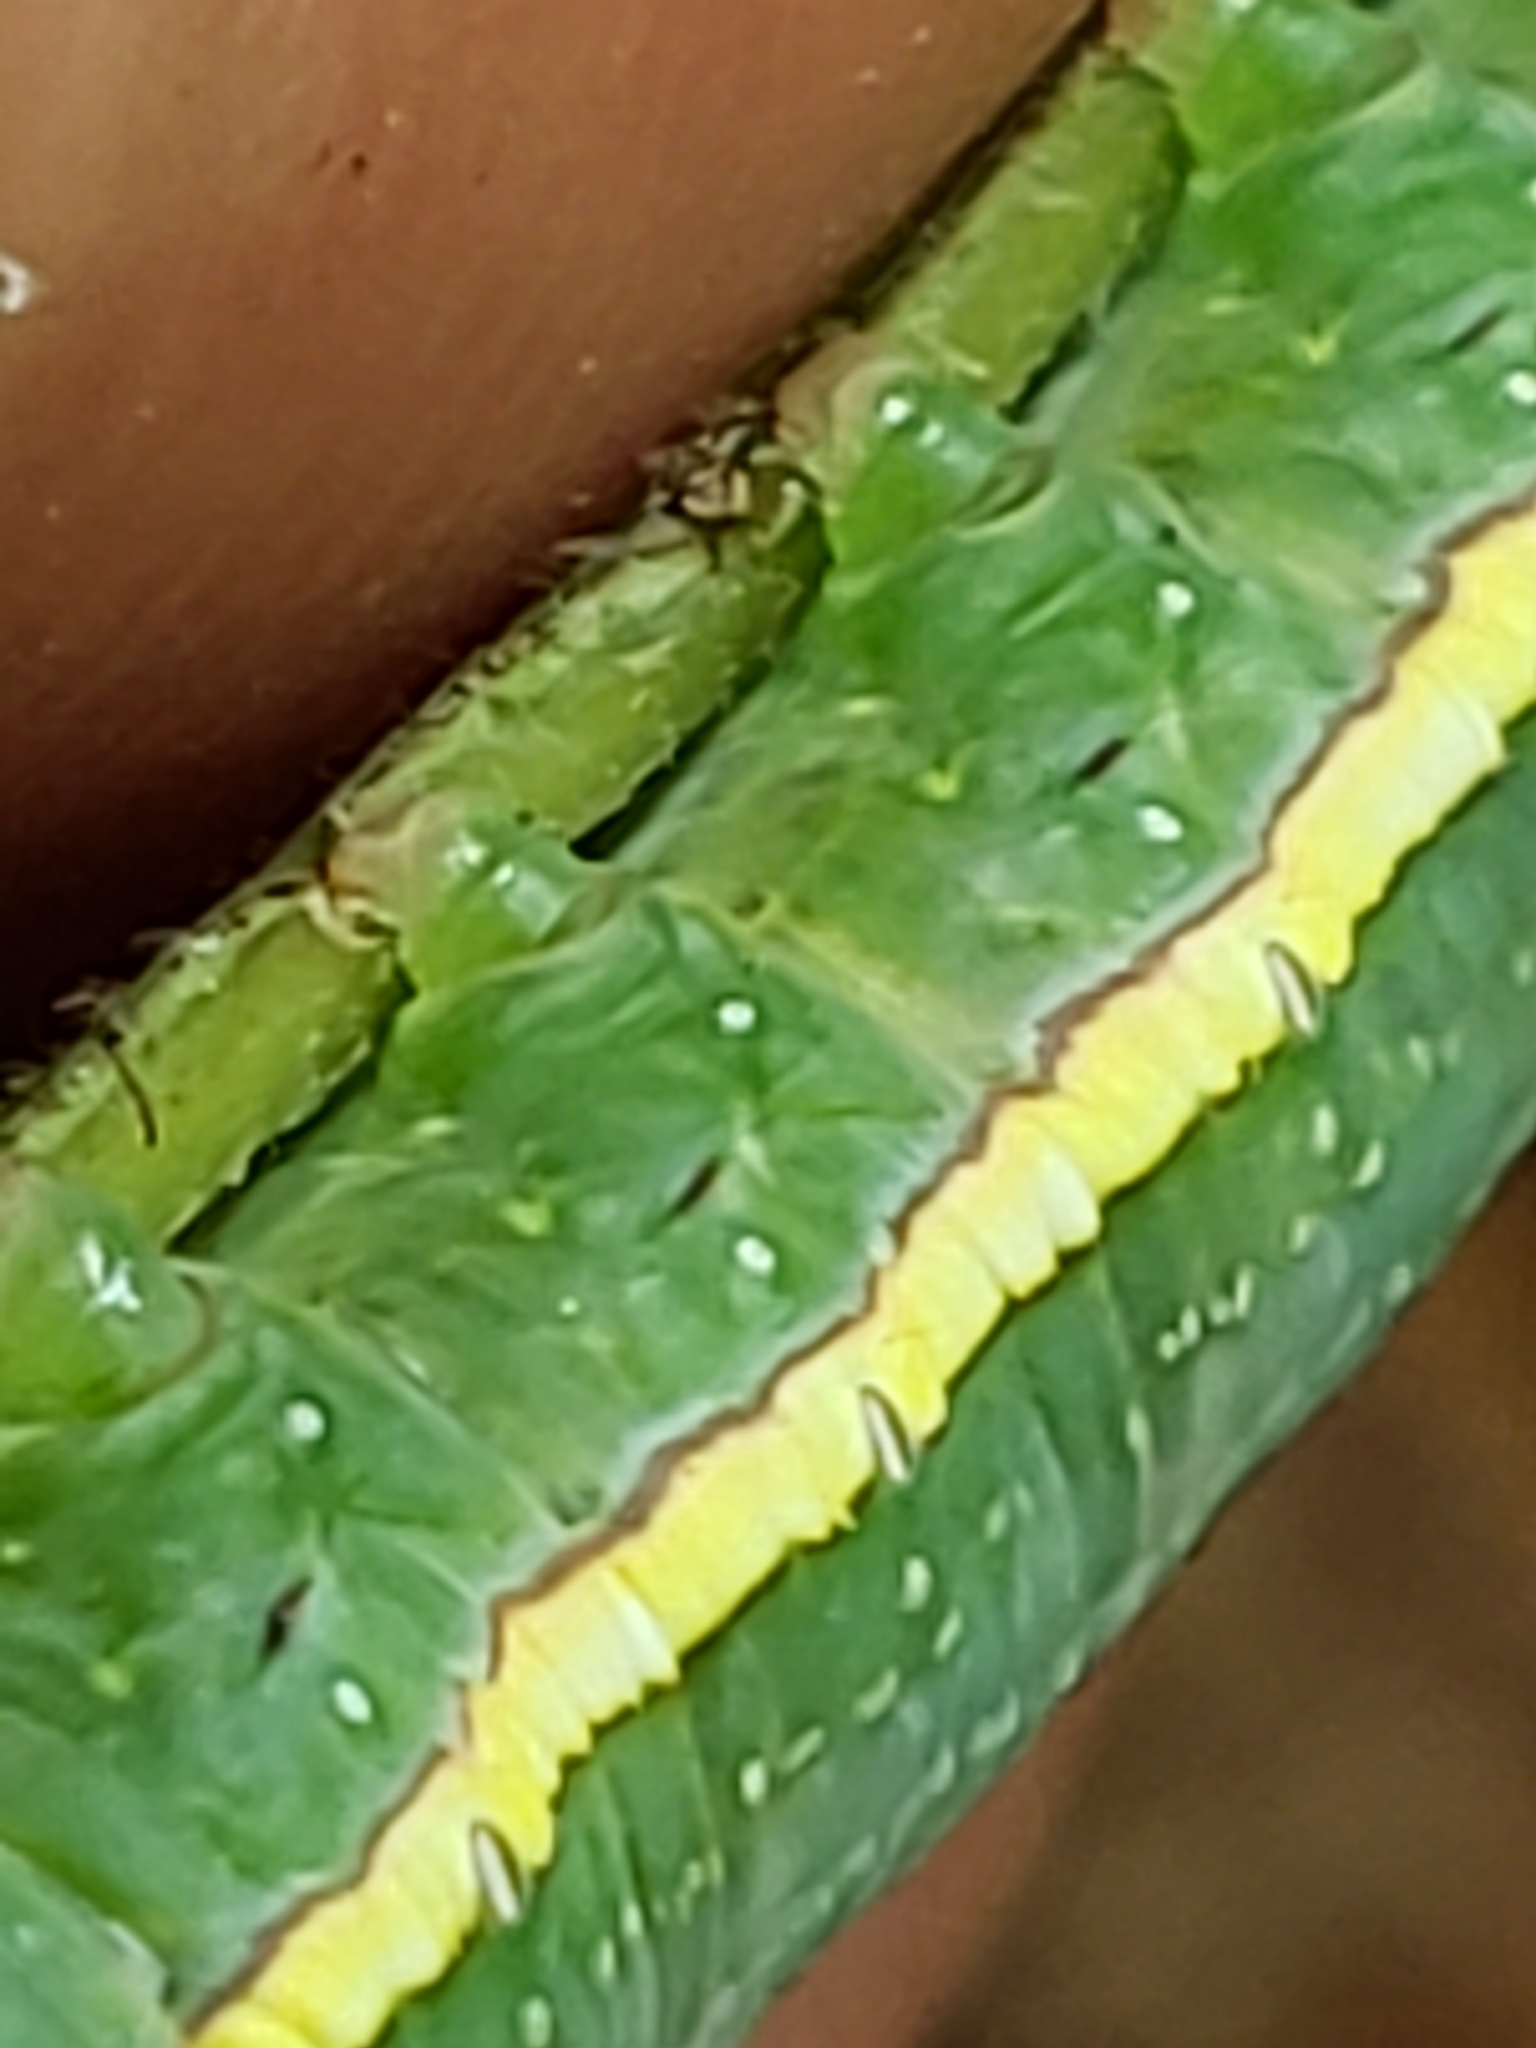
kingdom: Animalia
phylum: Arthropoda
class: Insecta
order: Lepidoptera
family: Notodontidae
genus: Paraeschra
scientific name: Paraeschra georgica
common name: Georgian prominent
